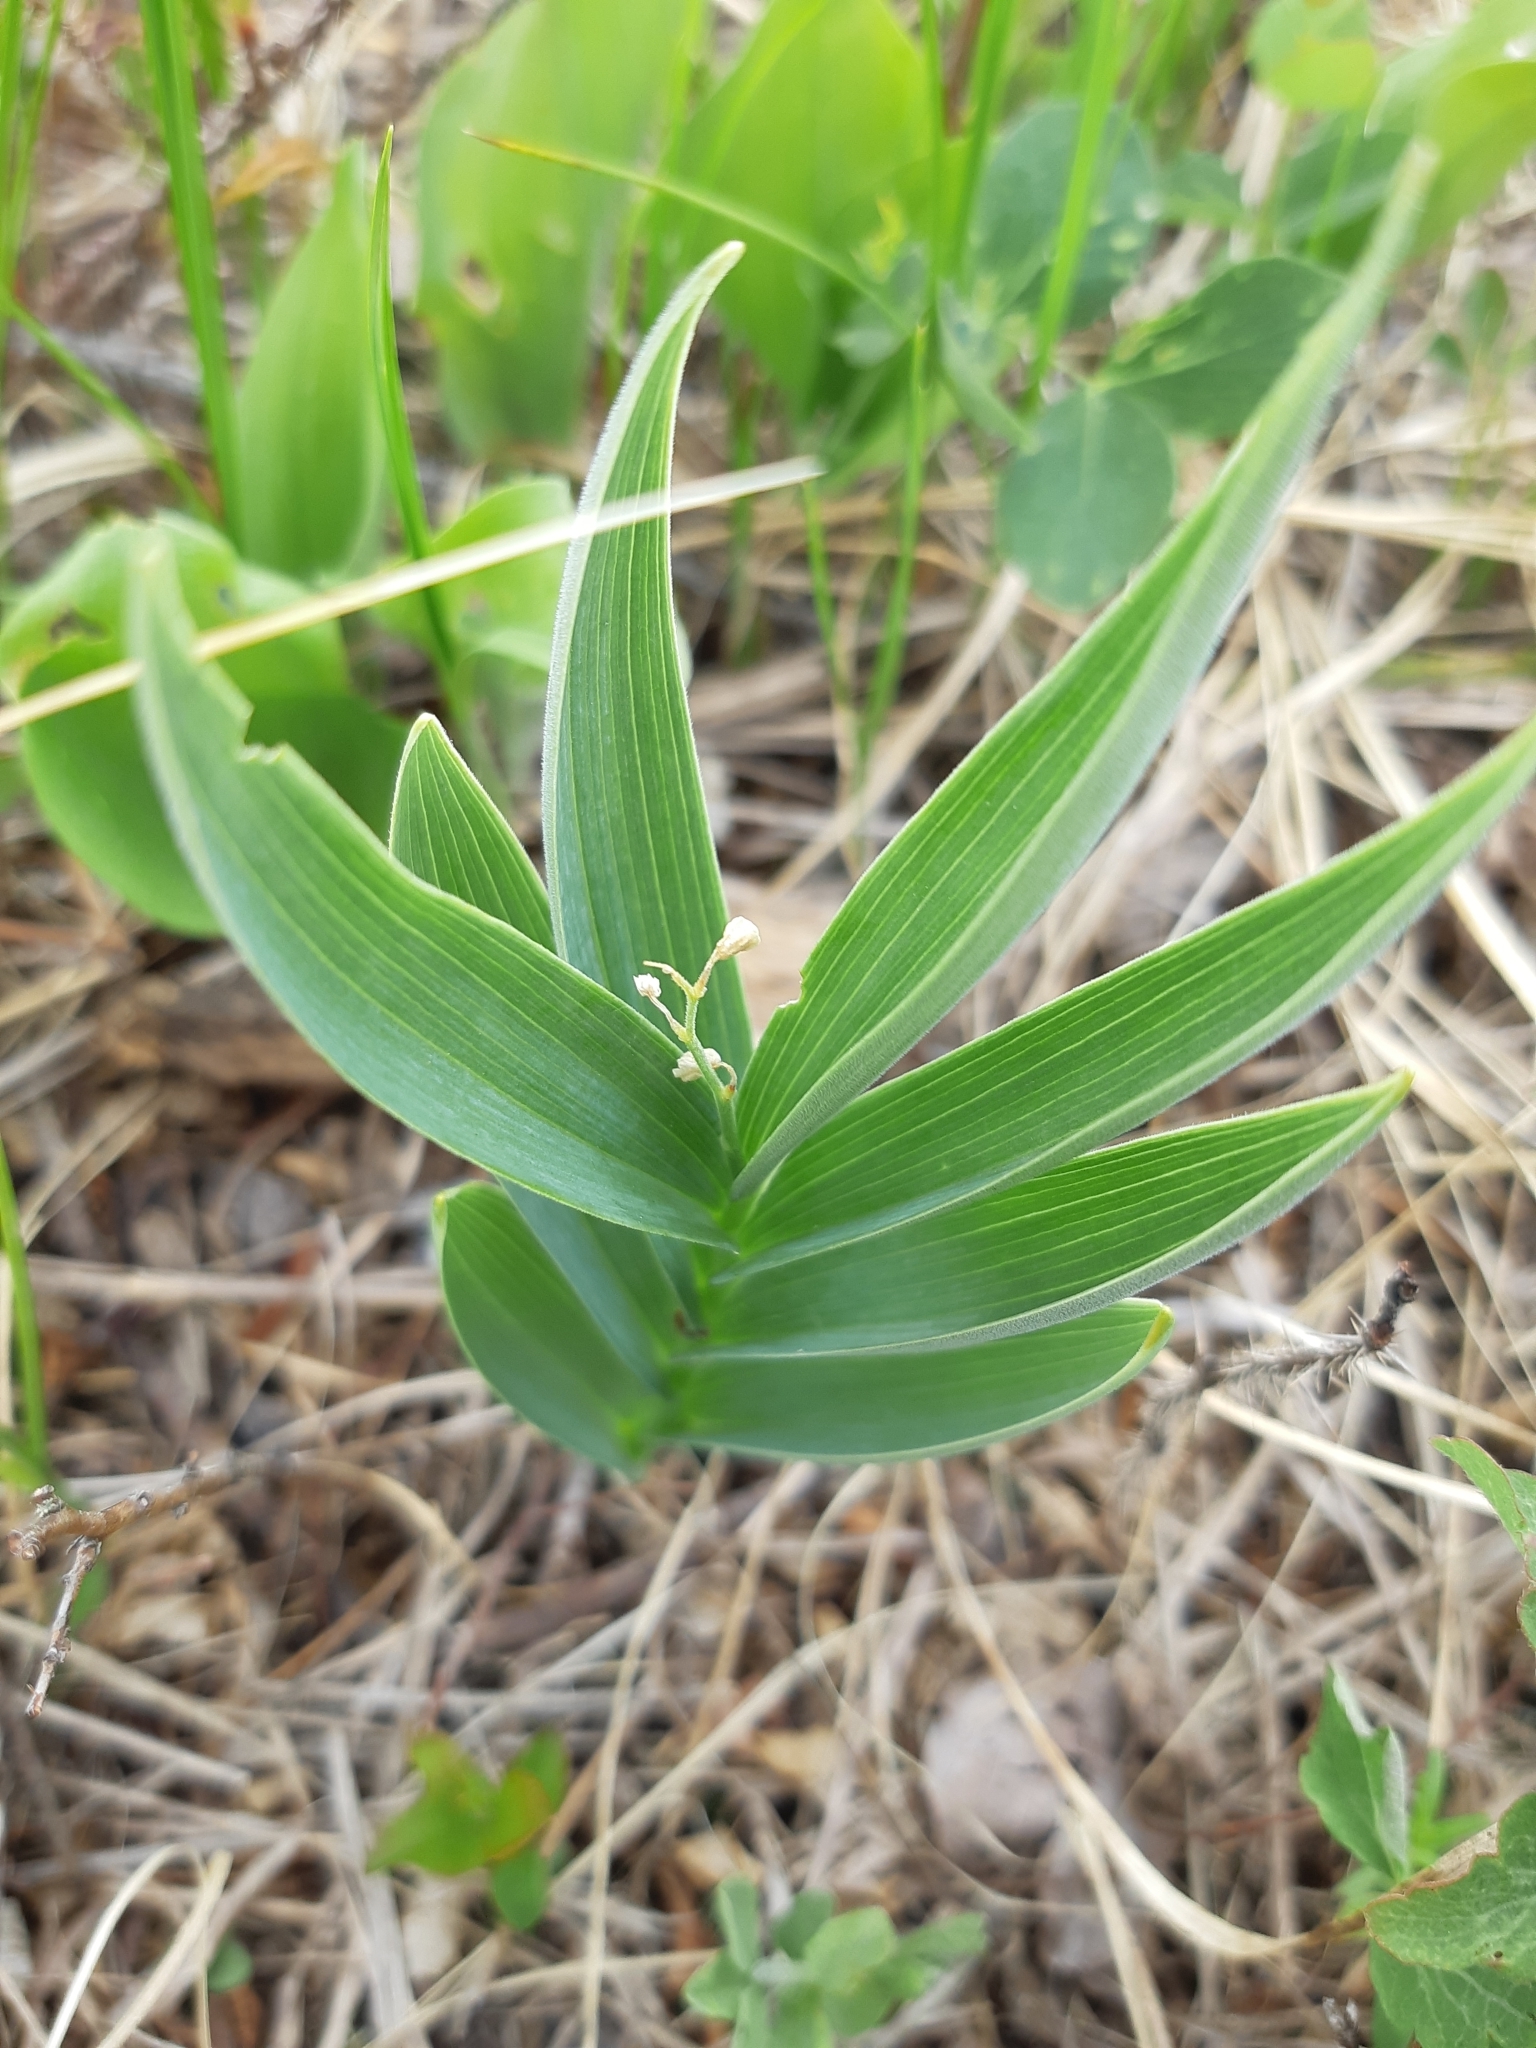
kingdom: Plantae
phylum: Tracheophyta
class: Liliopsida
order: Asparagales
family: Asparagaceae
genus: Maianthemum
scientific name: Maianthemum stellatum
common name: Little false solomon's seal
